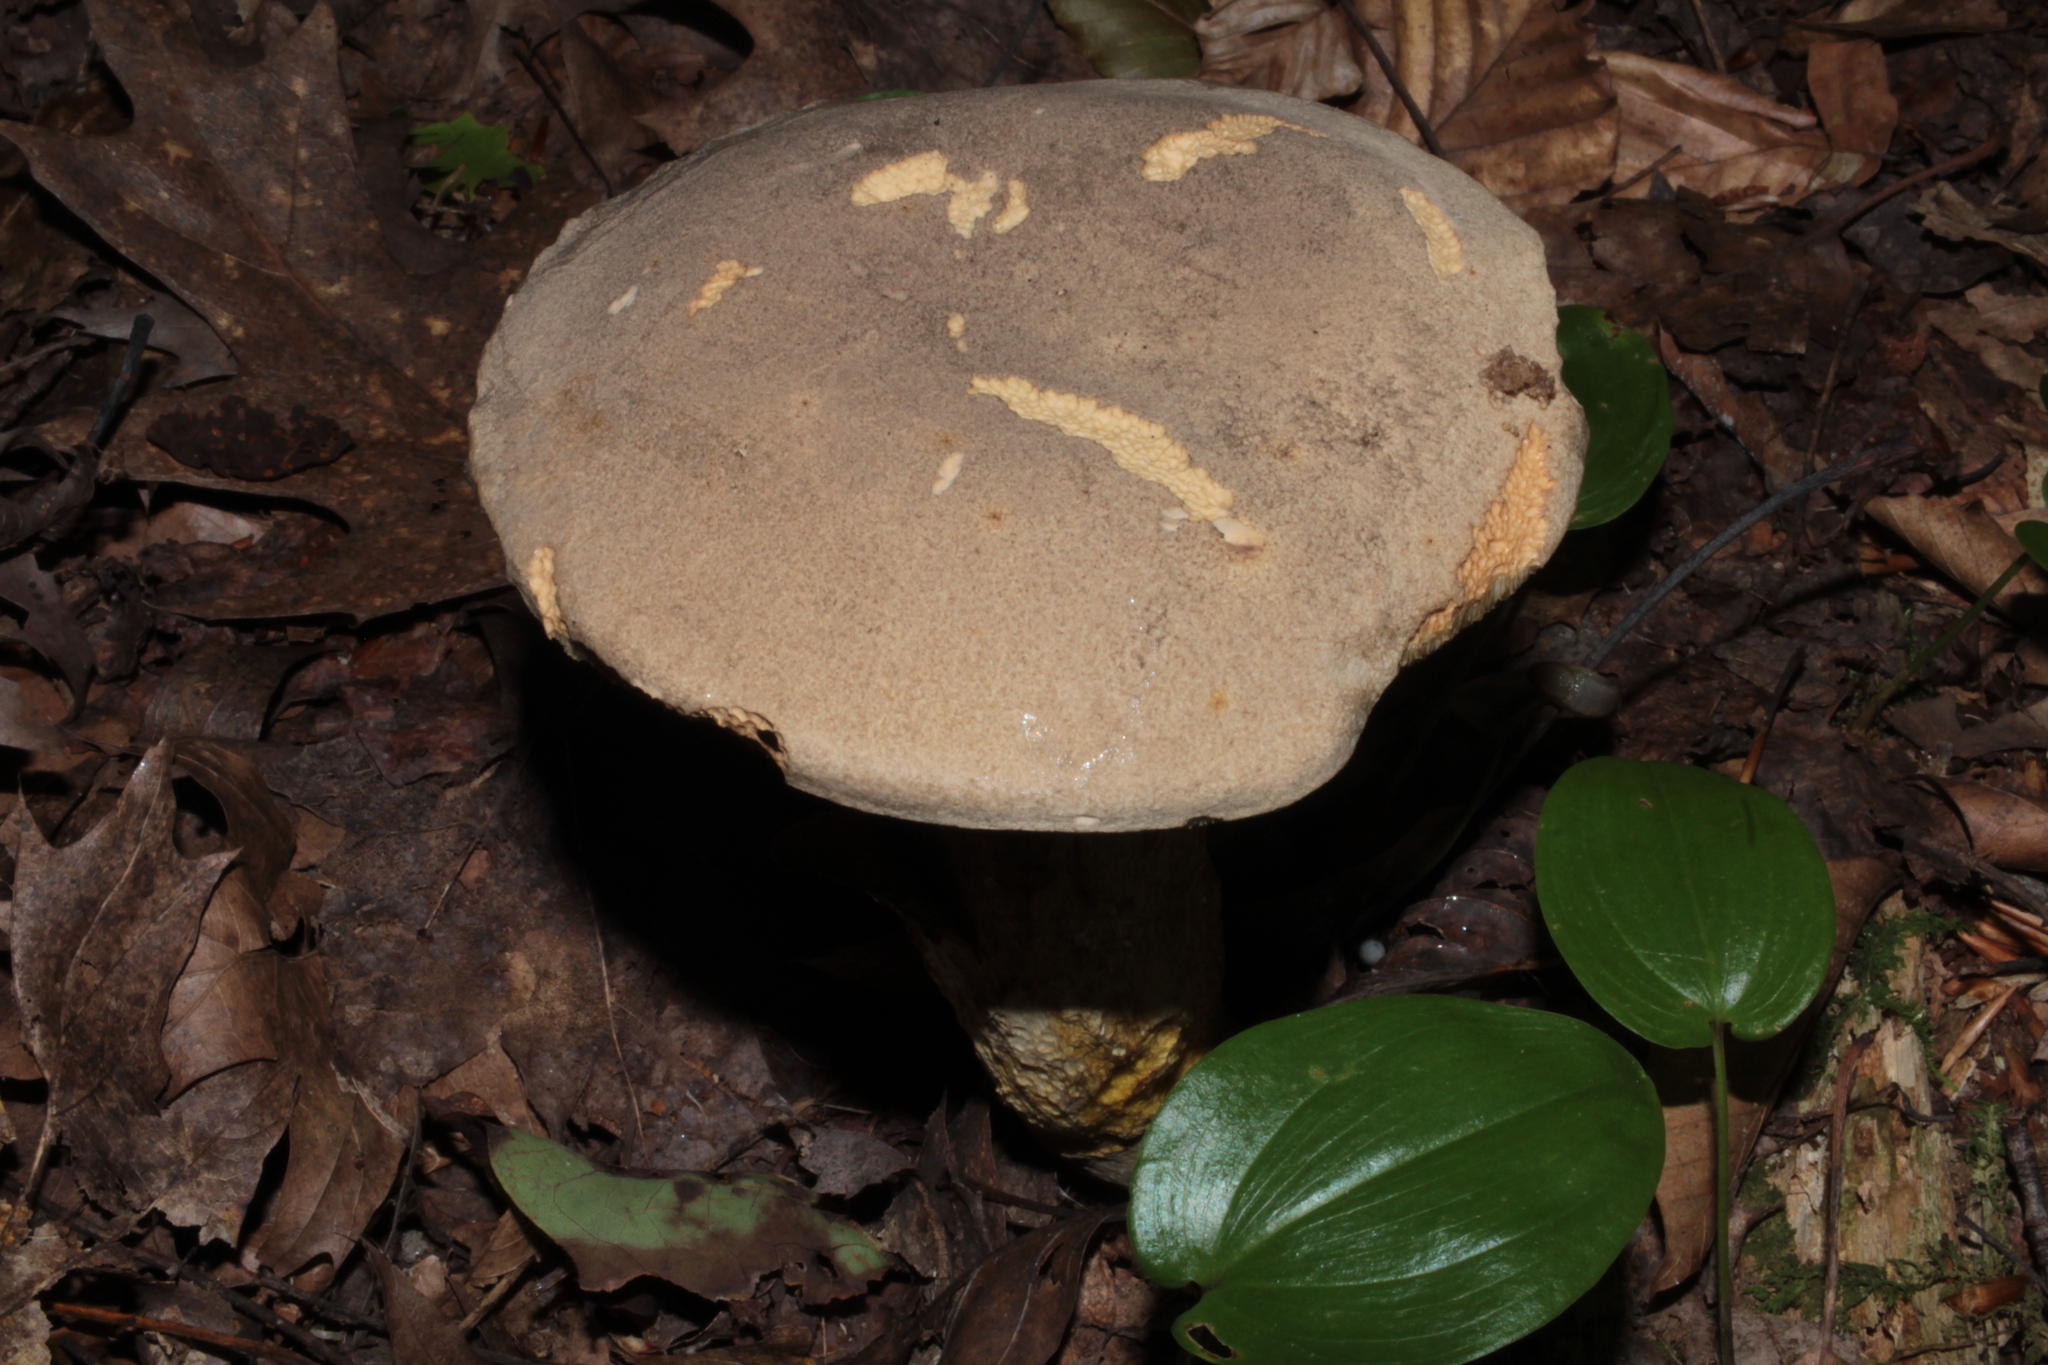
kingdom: Fungi
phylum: Basidiomycota
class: Agaricomycetes
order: Boletales
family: Boletaceae
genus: Retiboletus
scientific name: Retiboletus griseus
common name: Grey bolete
